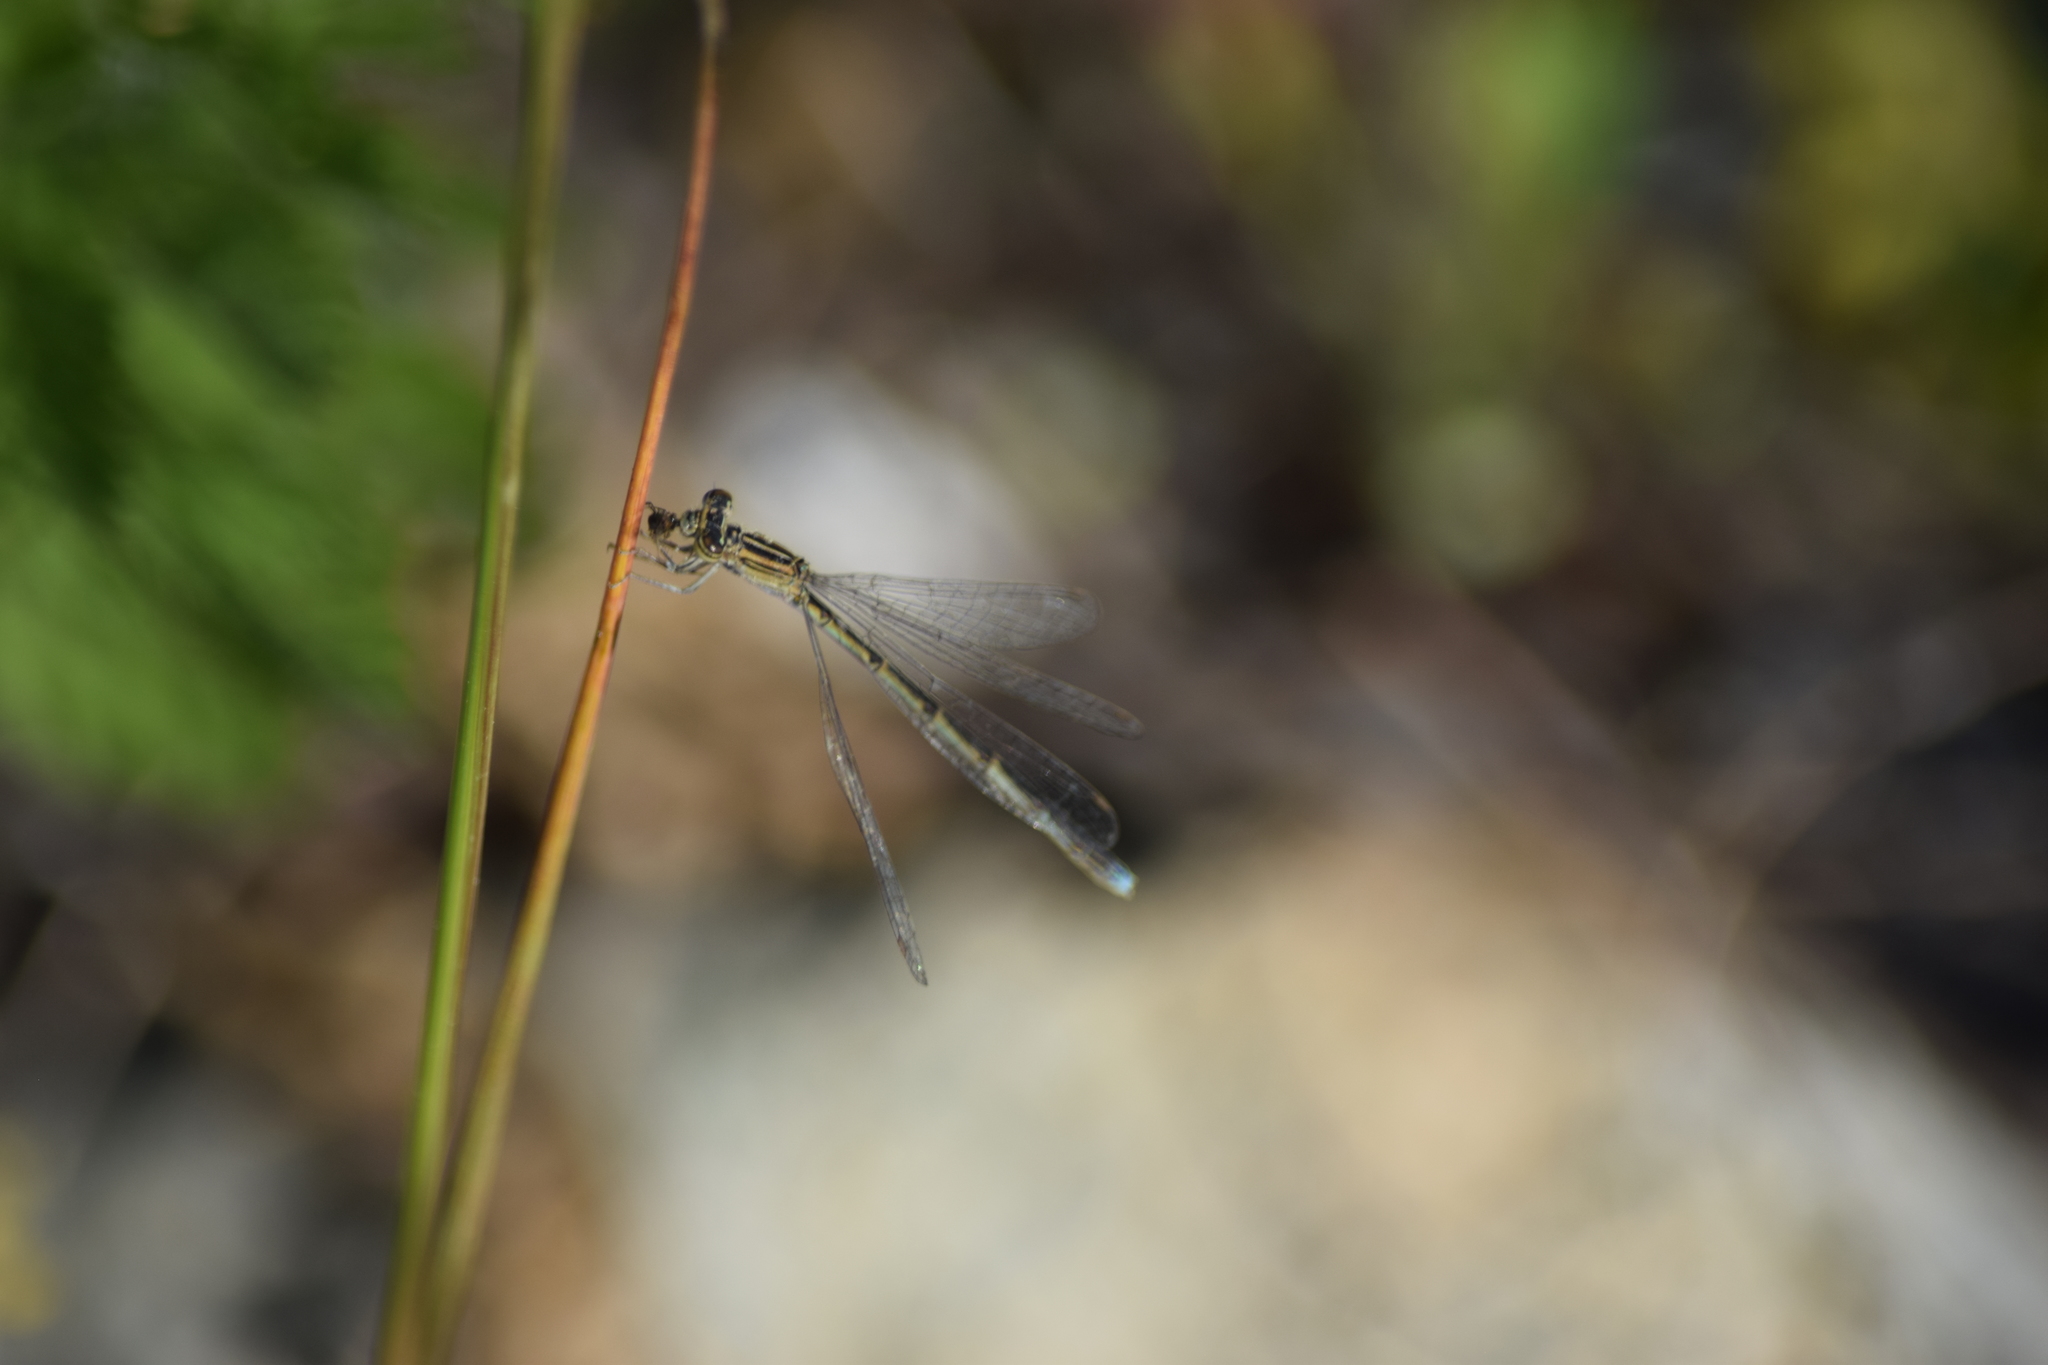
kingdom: Animalia
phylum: Arthropoda
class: Insecta
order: Odonata
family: Coenagrionidae
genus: Enallagma
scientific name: Enallagma basidens
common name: Double-striped bluet
